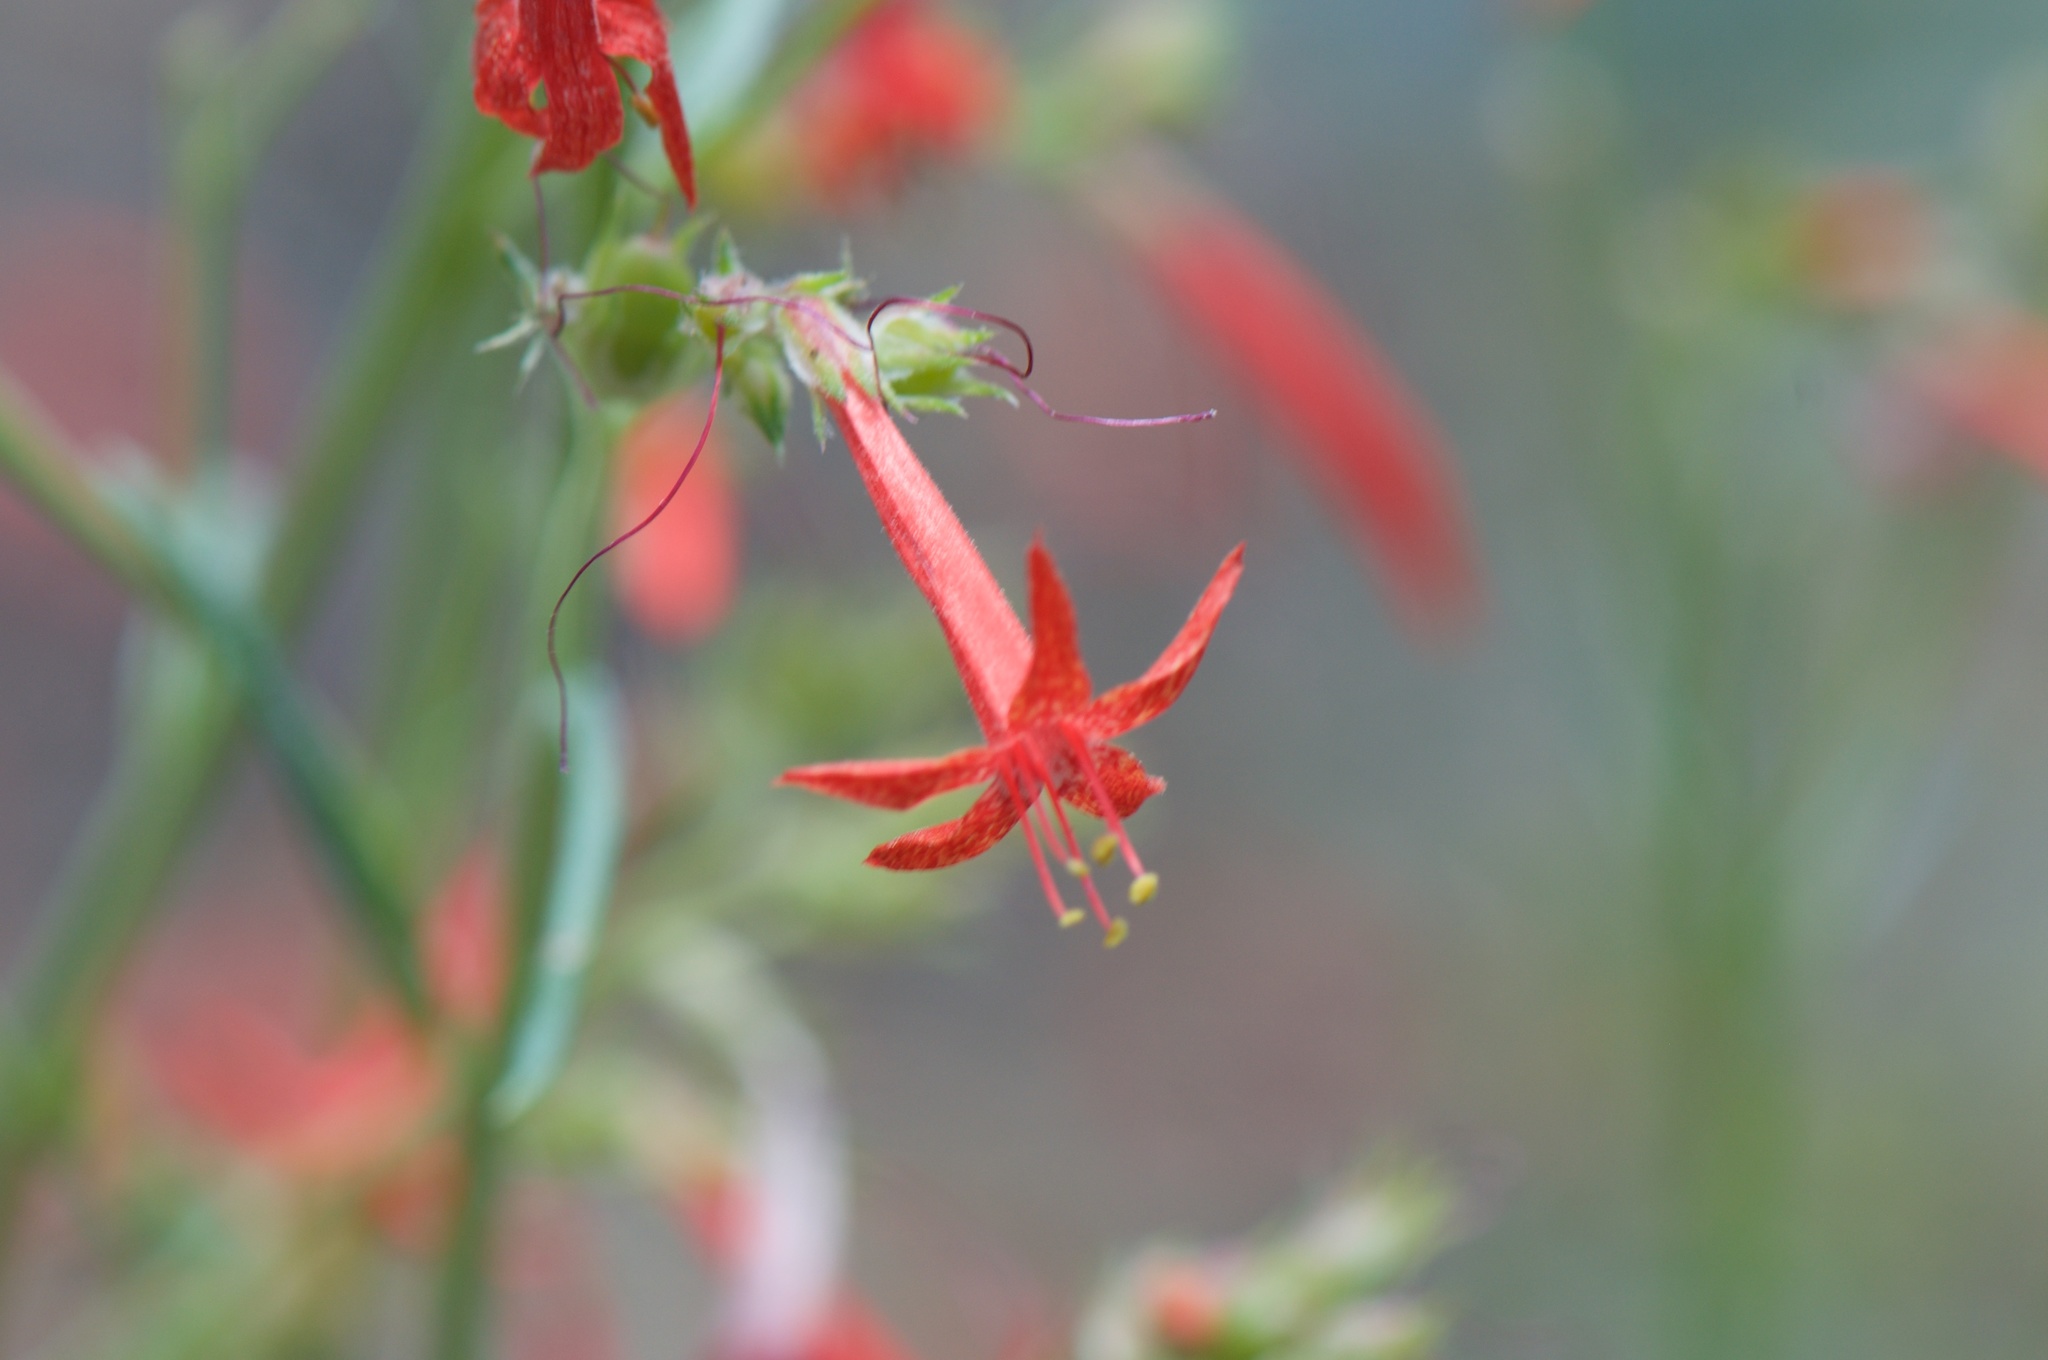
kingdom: Plantae
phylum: Tracheophyta
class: Magnoliopsida
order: Ericales
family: Polemoniaceae
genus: Ipomopsis
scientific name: Ipomopsis aggregata
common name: Scarlet gilia
